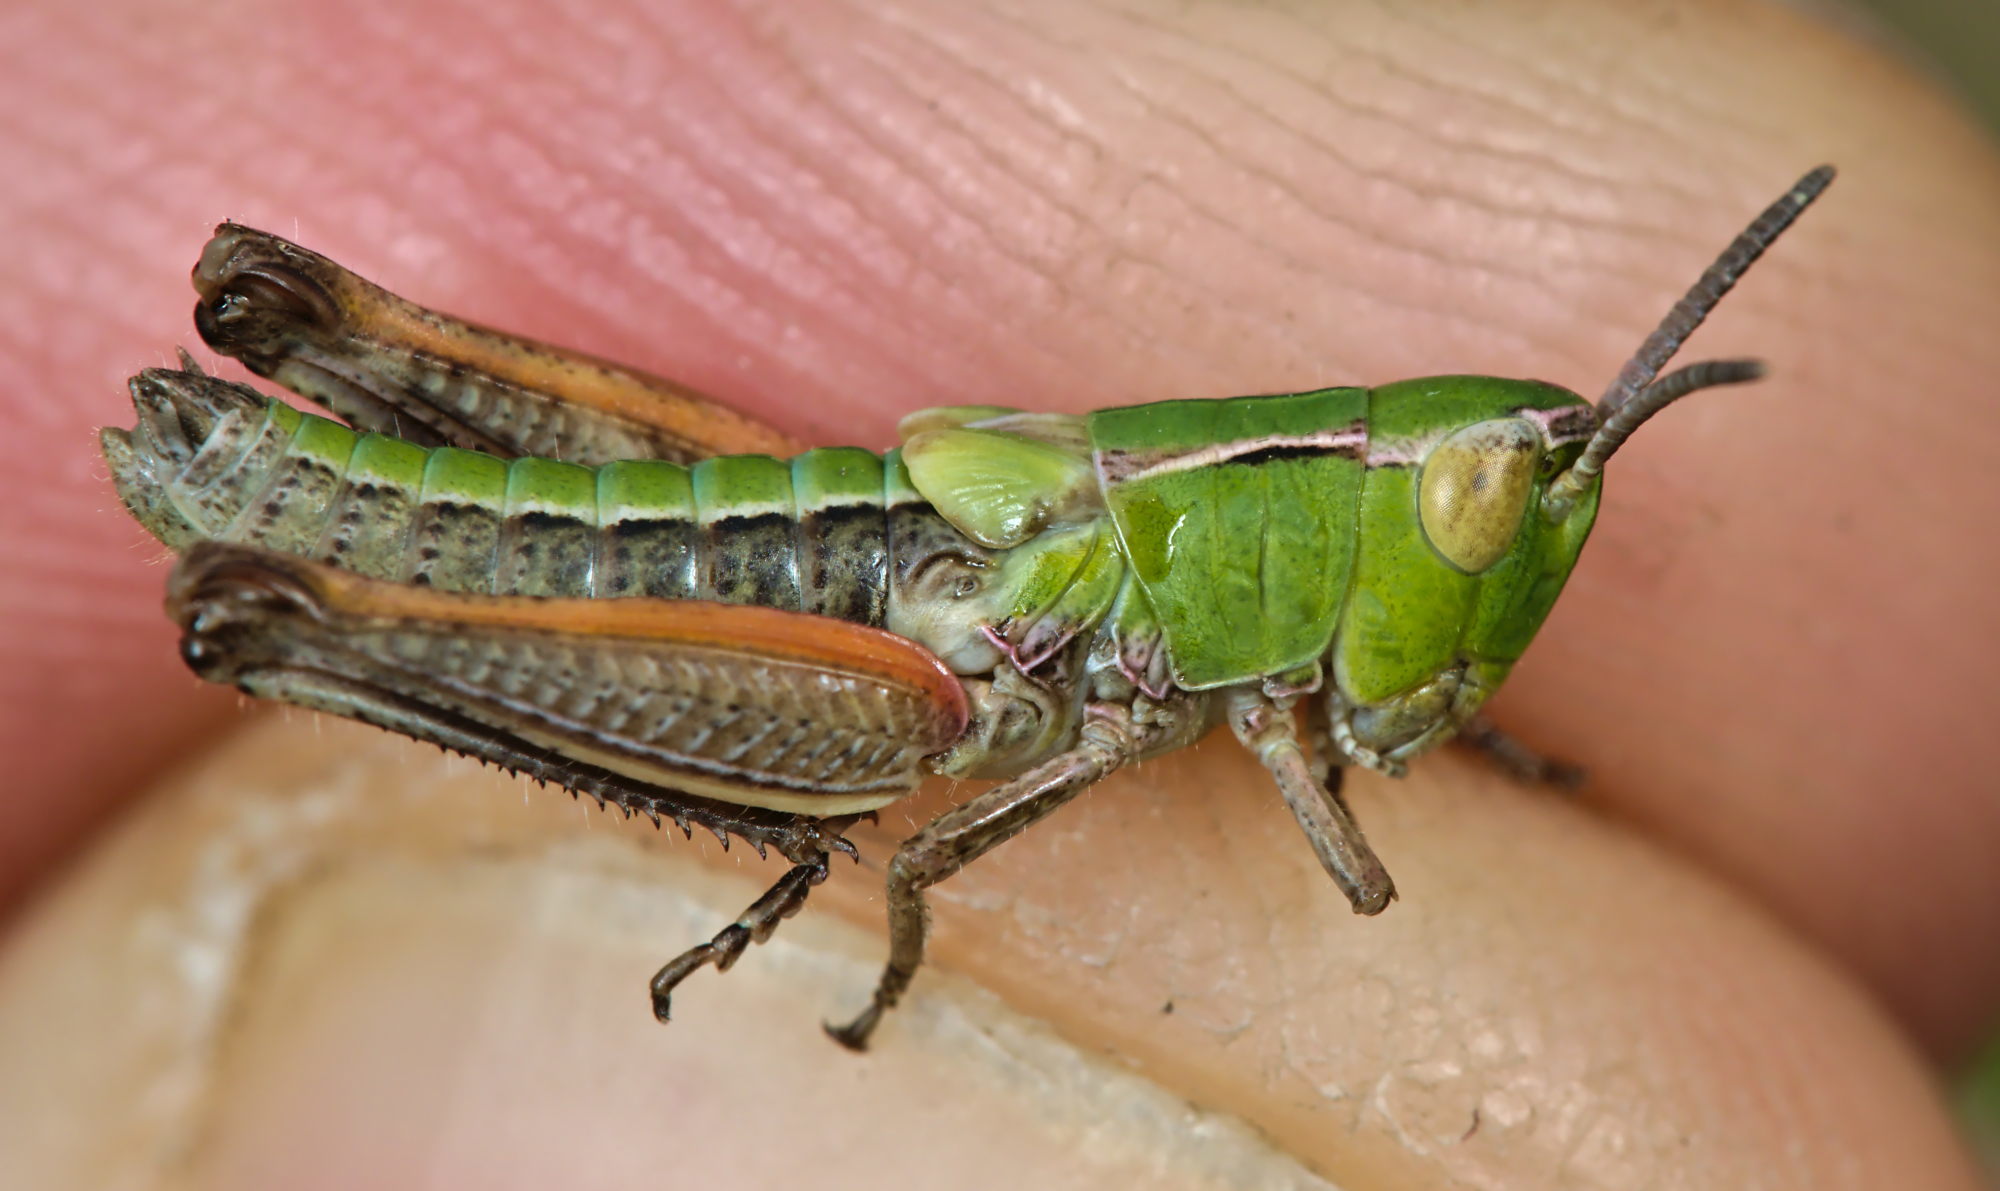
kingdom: Animalia
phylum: Arthropoda
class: Insecta
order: Orthoptera
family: Acrididae
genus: Stenobothrus
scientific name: Stenobothrus lineatus
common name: Stripe-winged grasshopper
